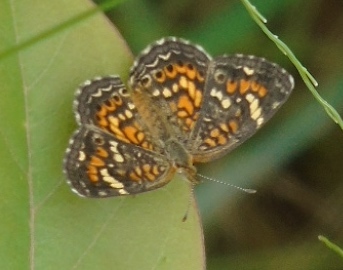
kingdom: Animalia
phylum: Arthropoda
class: Insecta
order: Lepidoptera
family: Nymphalidae
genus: Phyciodes
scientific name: Phyciodes
